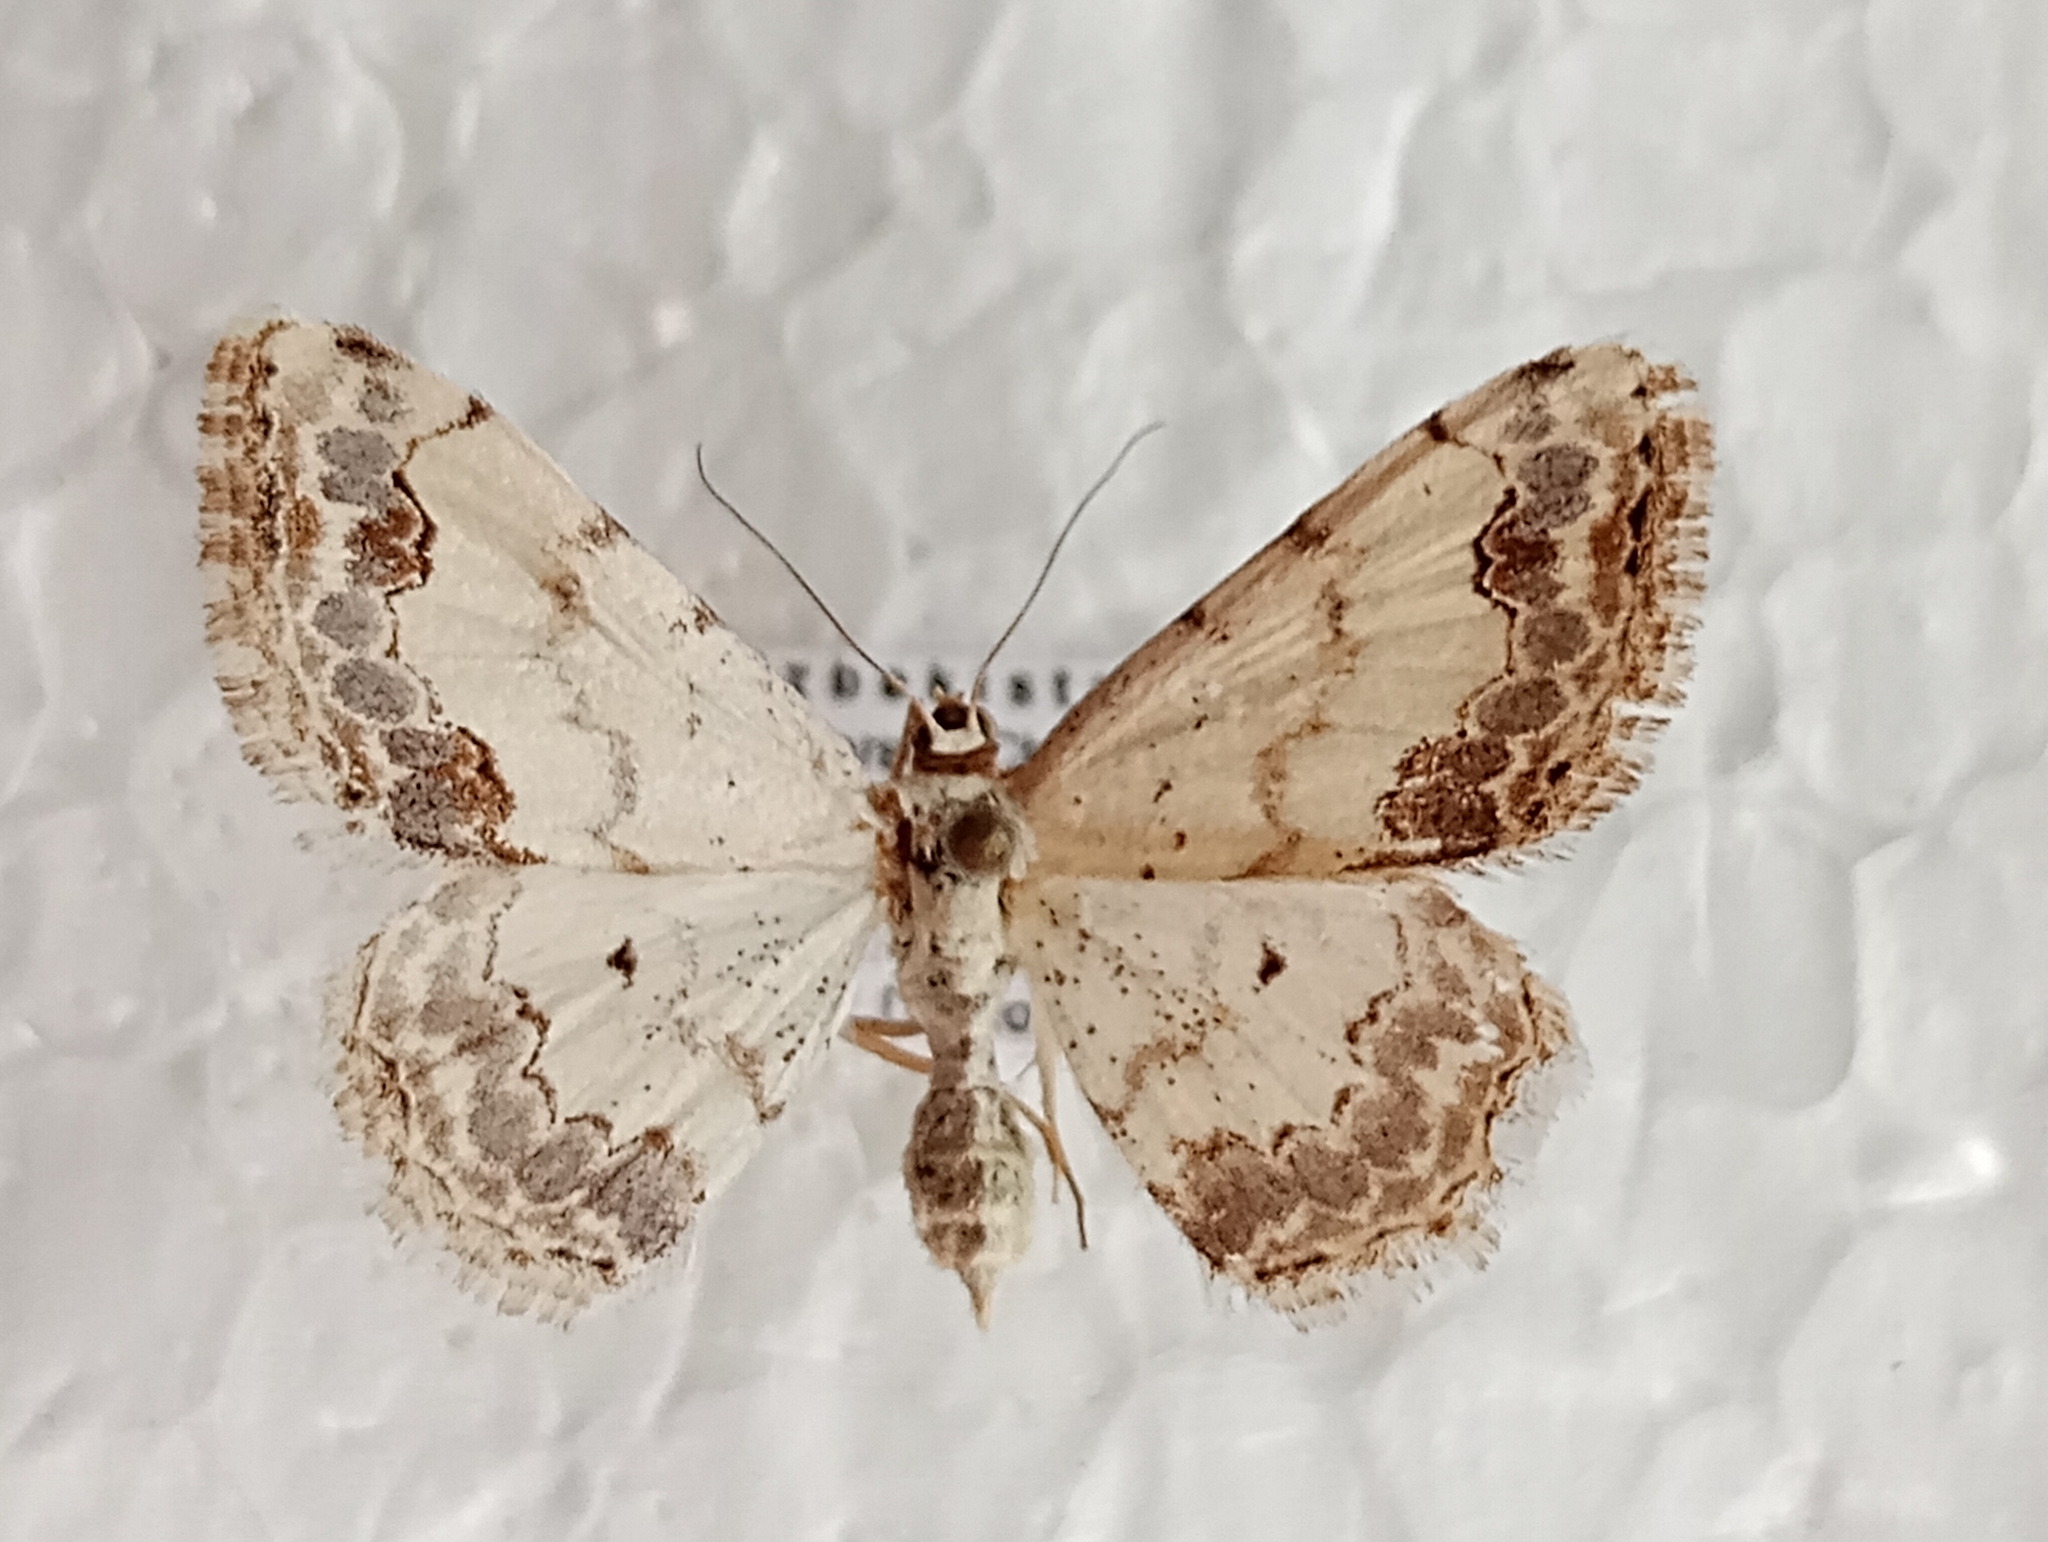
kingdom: Animalia
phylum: Arthropoda
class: Insecta
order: Lepidoptera
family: Geometridae
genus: Scopula
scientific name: Scopula decorata
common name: Middle lace border
